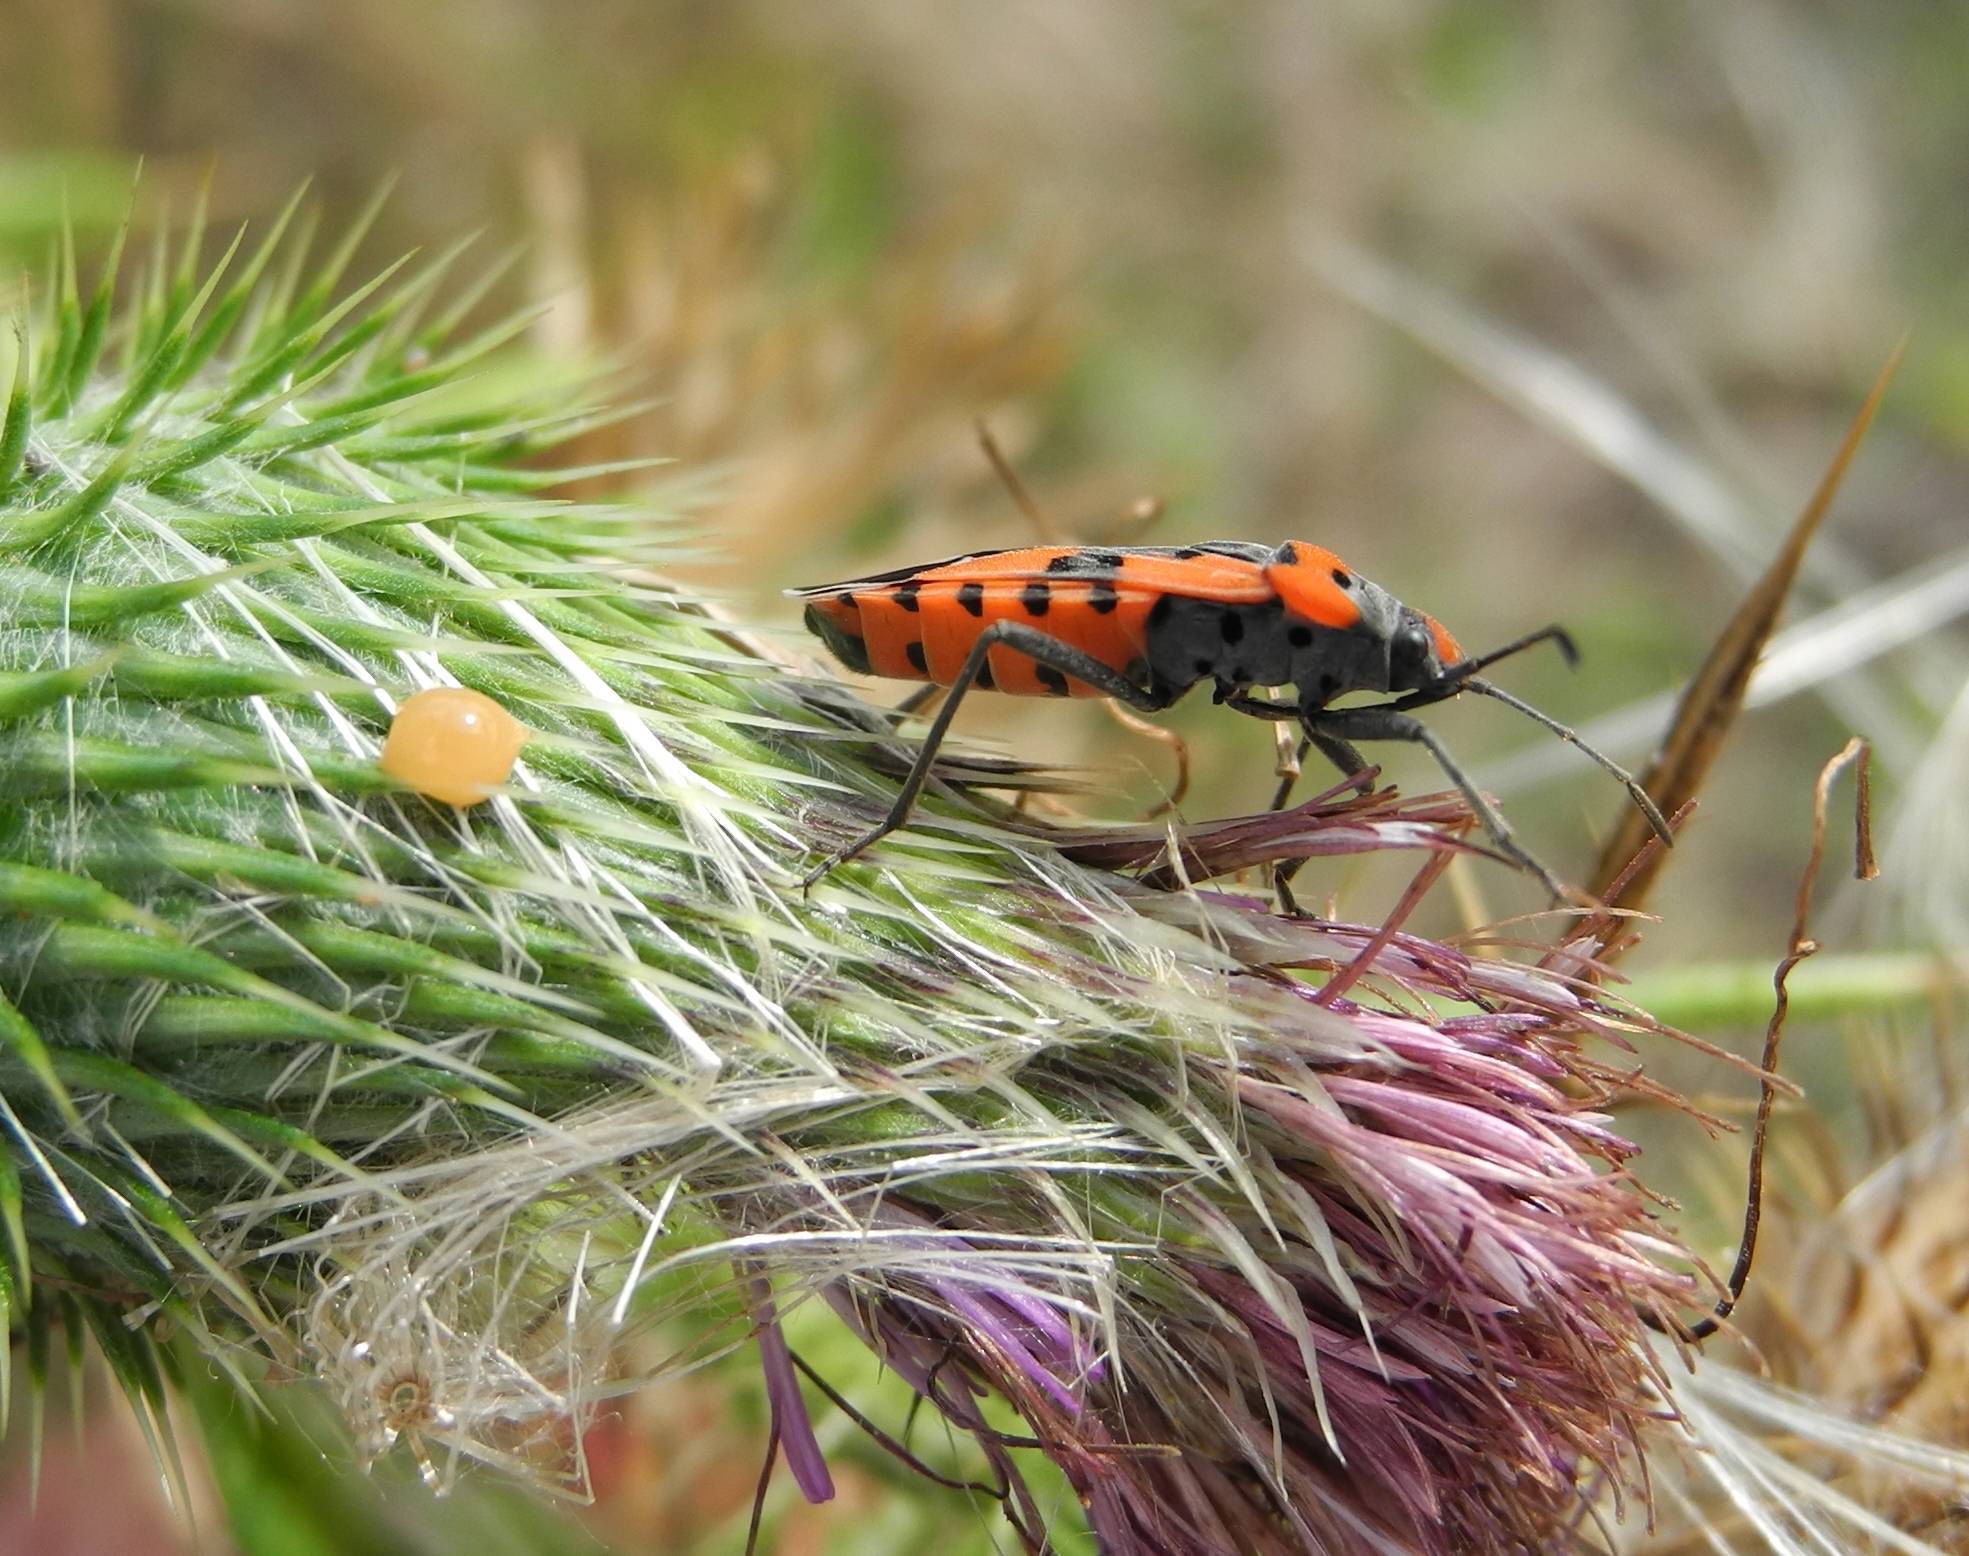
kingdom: Animalia
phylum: Arthropoda
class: Insecta
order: Hemiptera
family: Lygaeidae
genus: Lygaeus
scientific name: Lygaeus equestris
